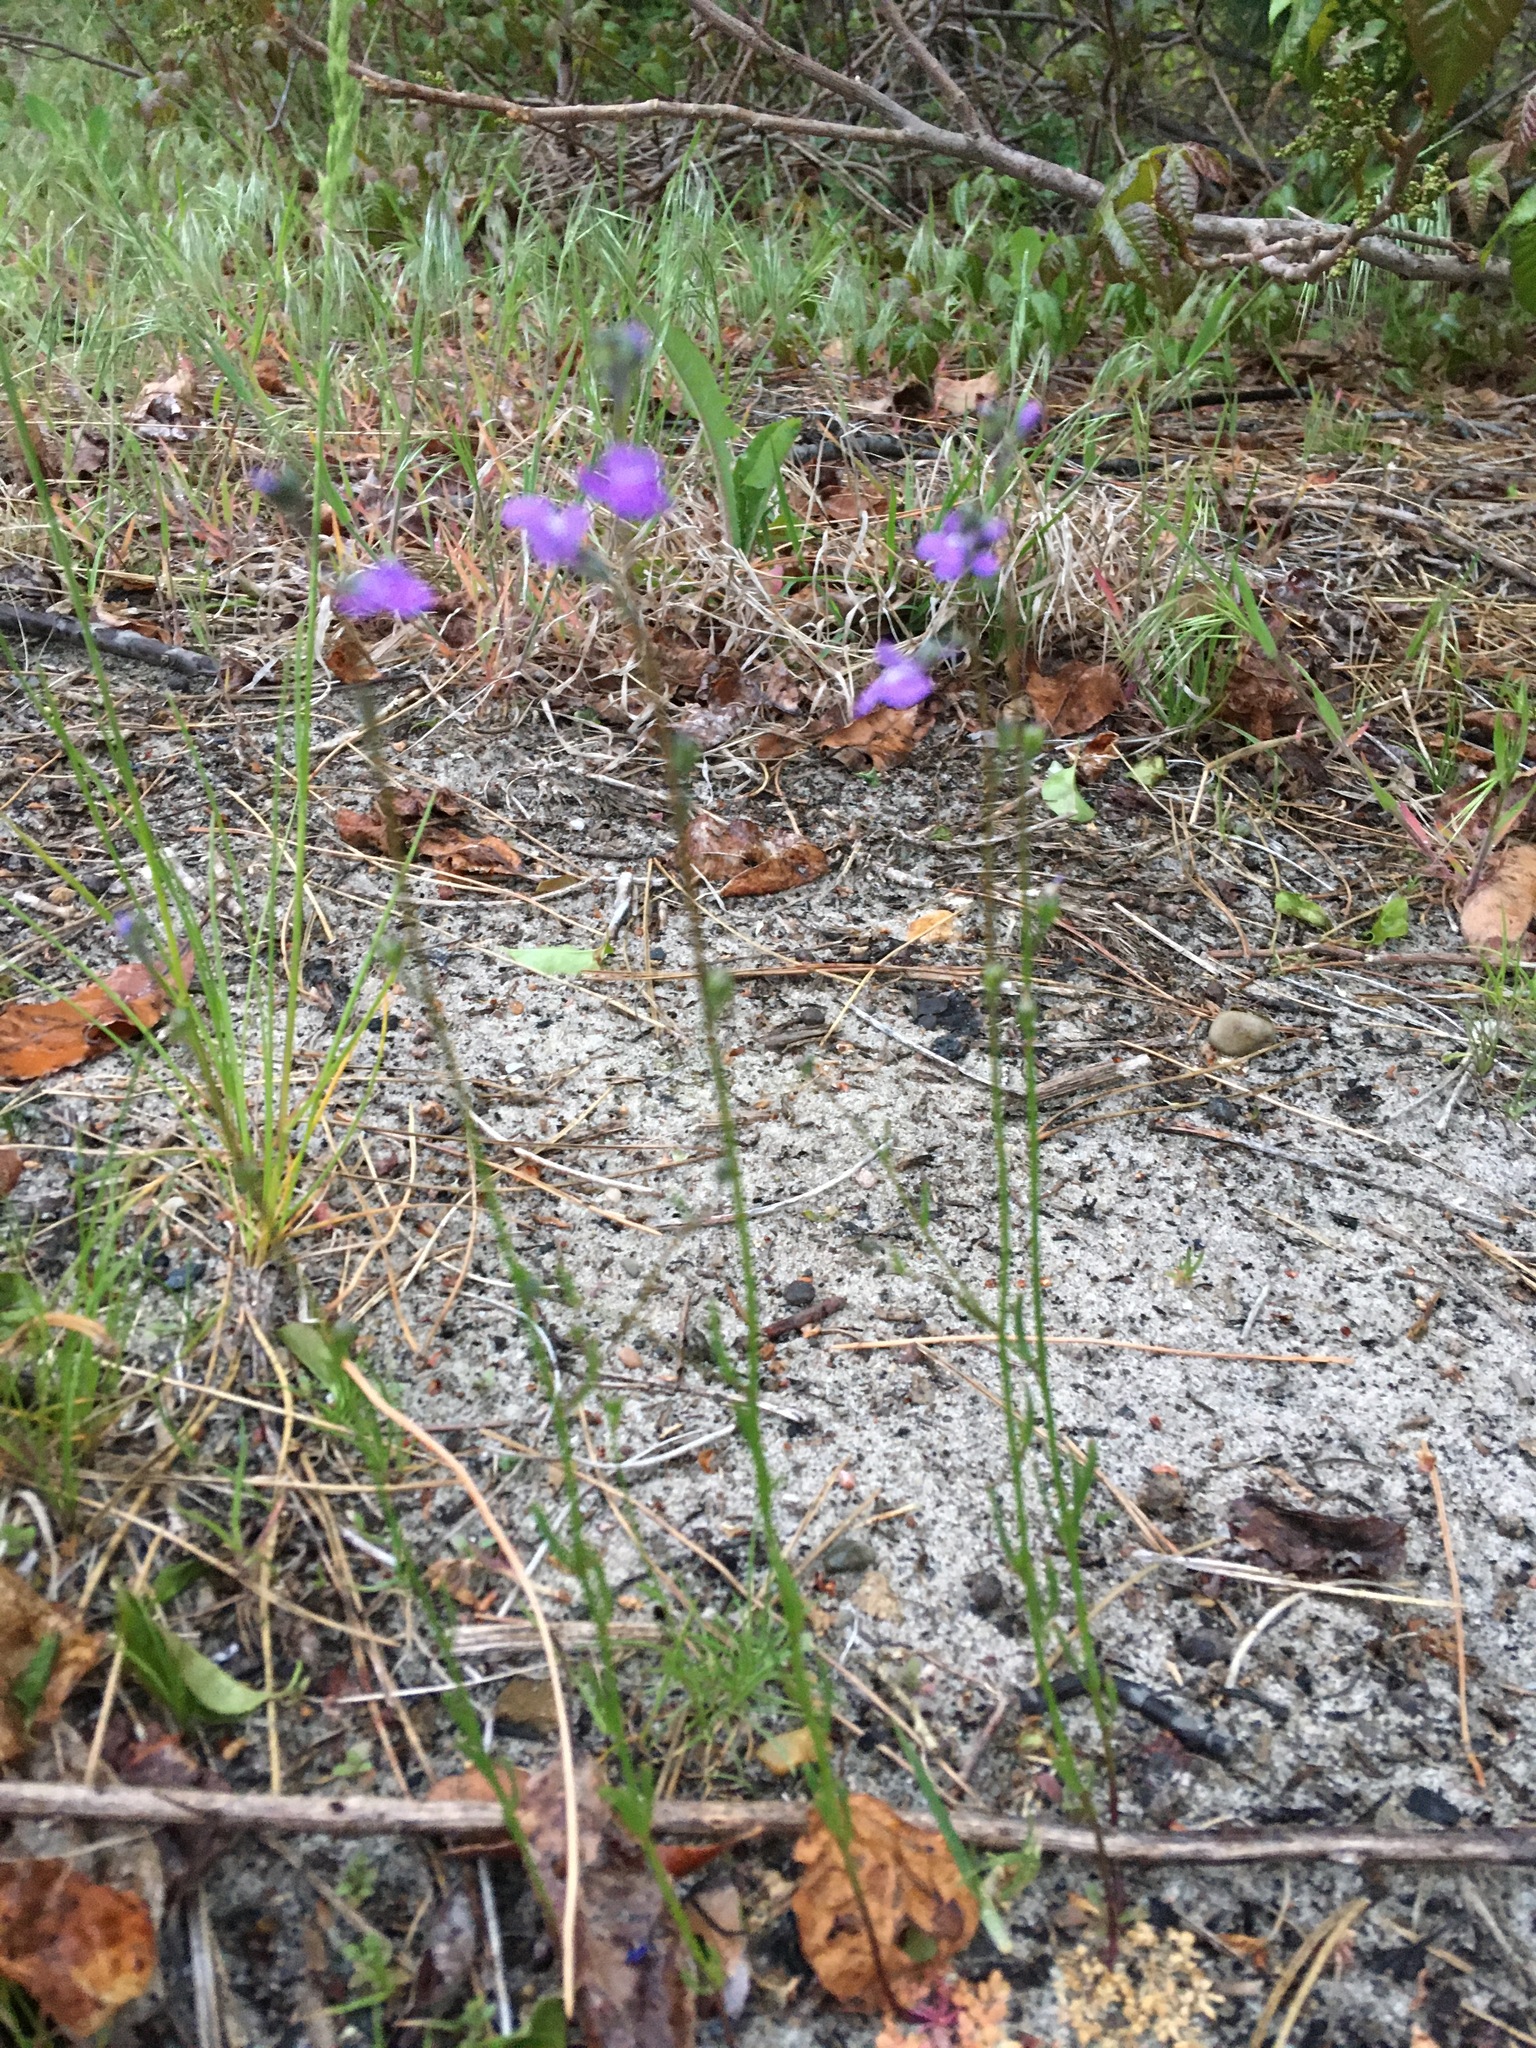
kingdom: Plantae
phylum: Tracheophyta
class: Magnoliopsida
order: Lamiales
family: Plantaginaceae
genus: Nuttallanthus
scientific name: Nuttallanthus canadensis
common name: Blue toadflax
